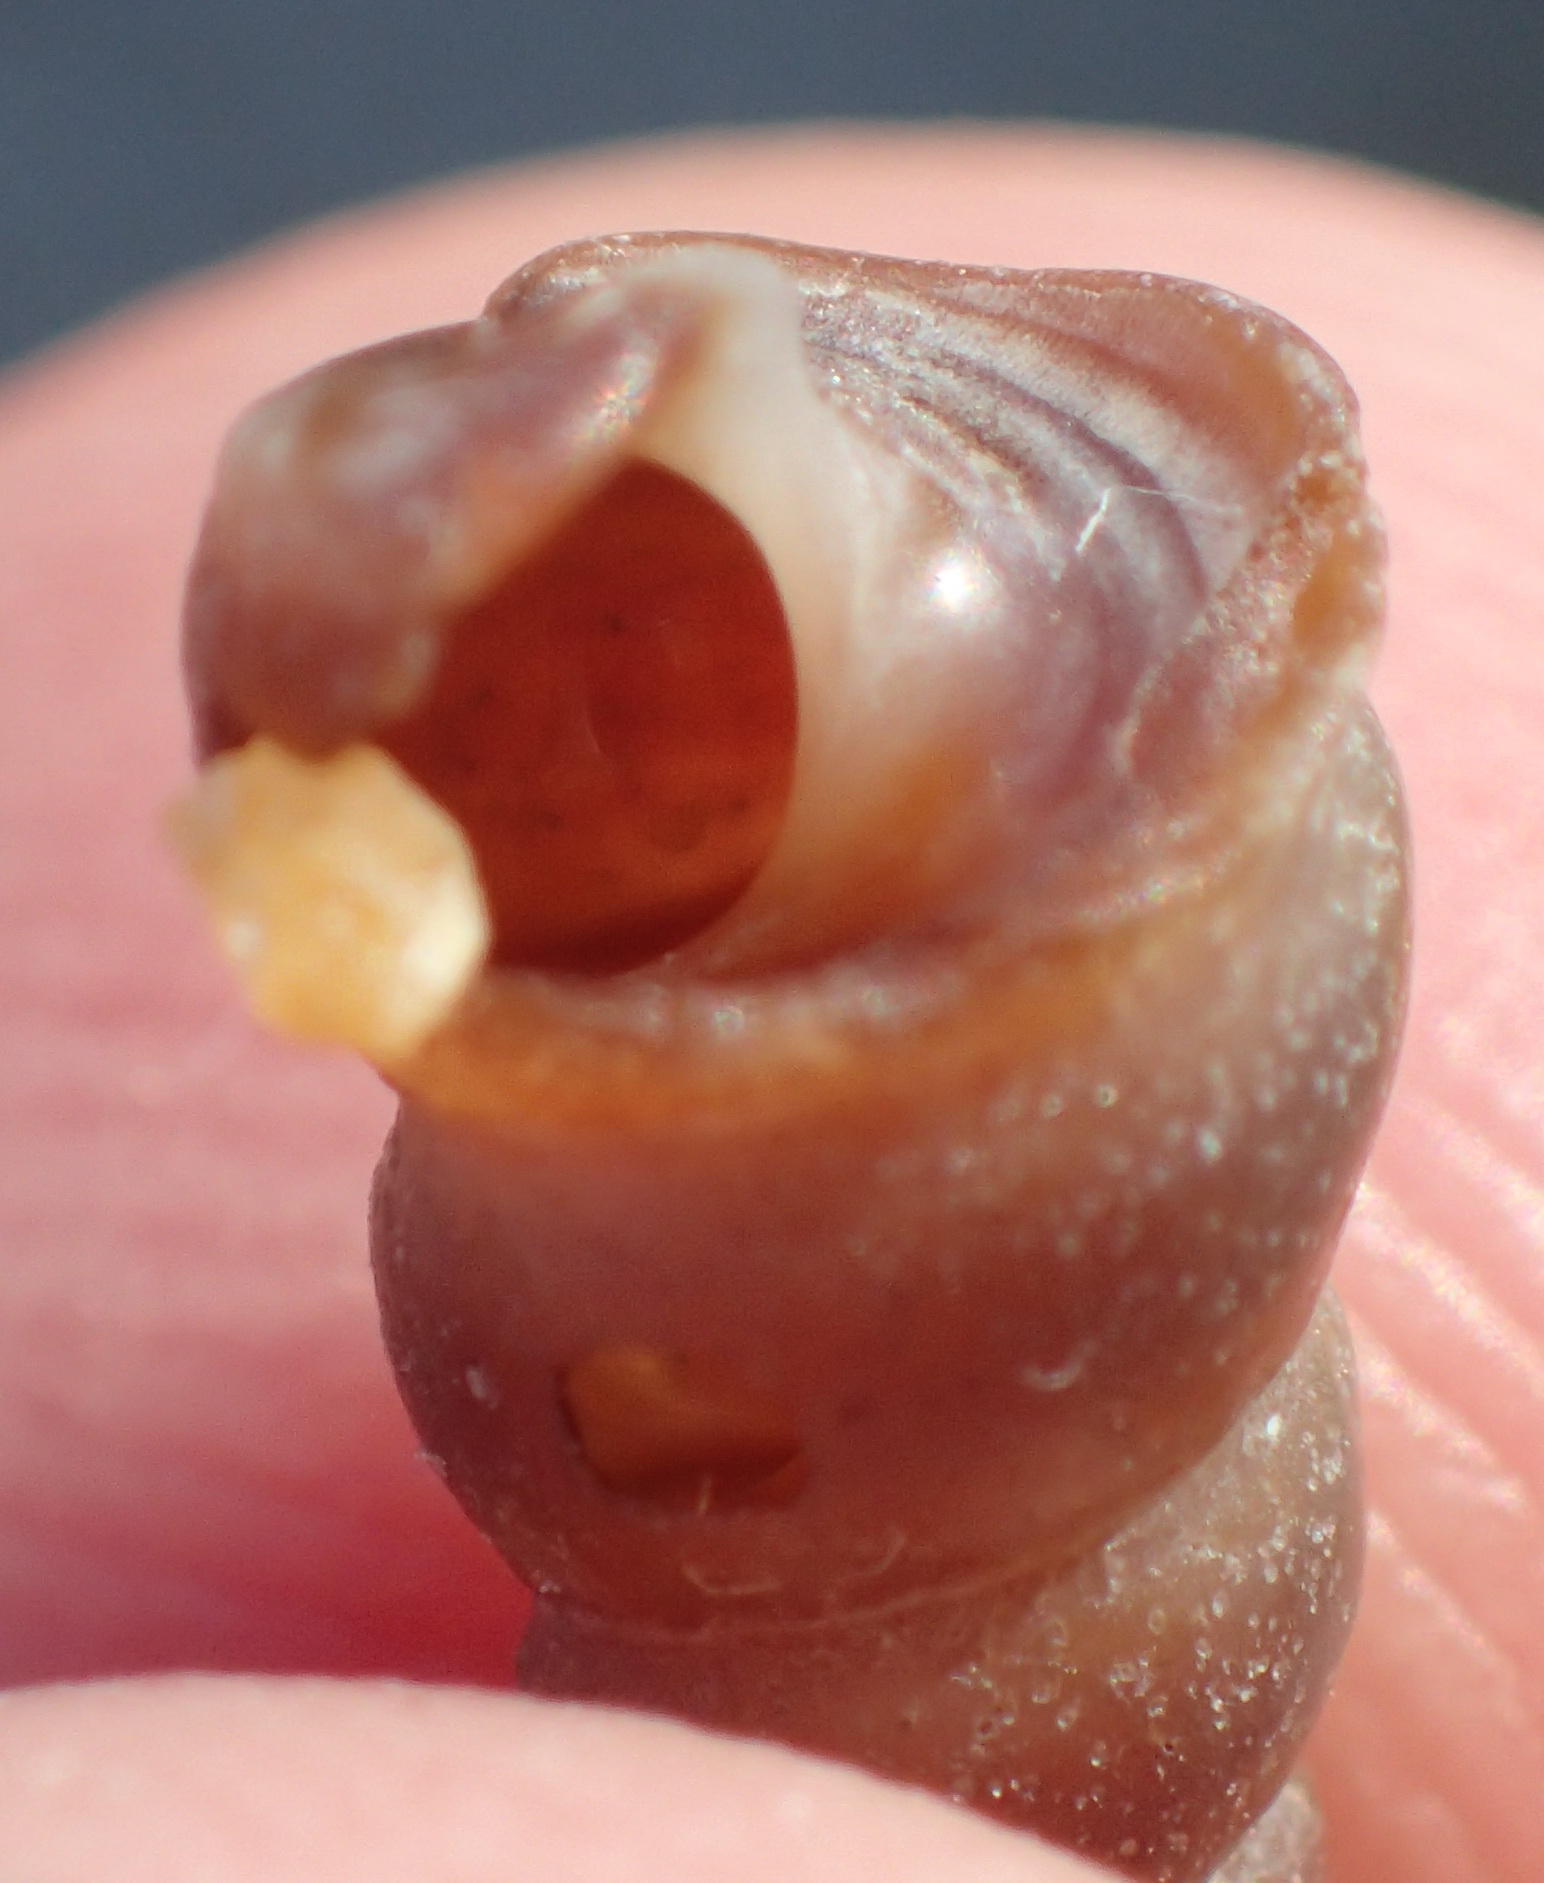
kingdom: Animalia
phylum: Mollusca
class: Gastropoda
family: Turritellidae
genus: Turritella
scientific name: Turritella capensis
